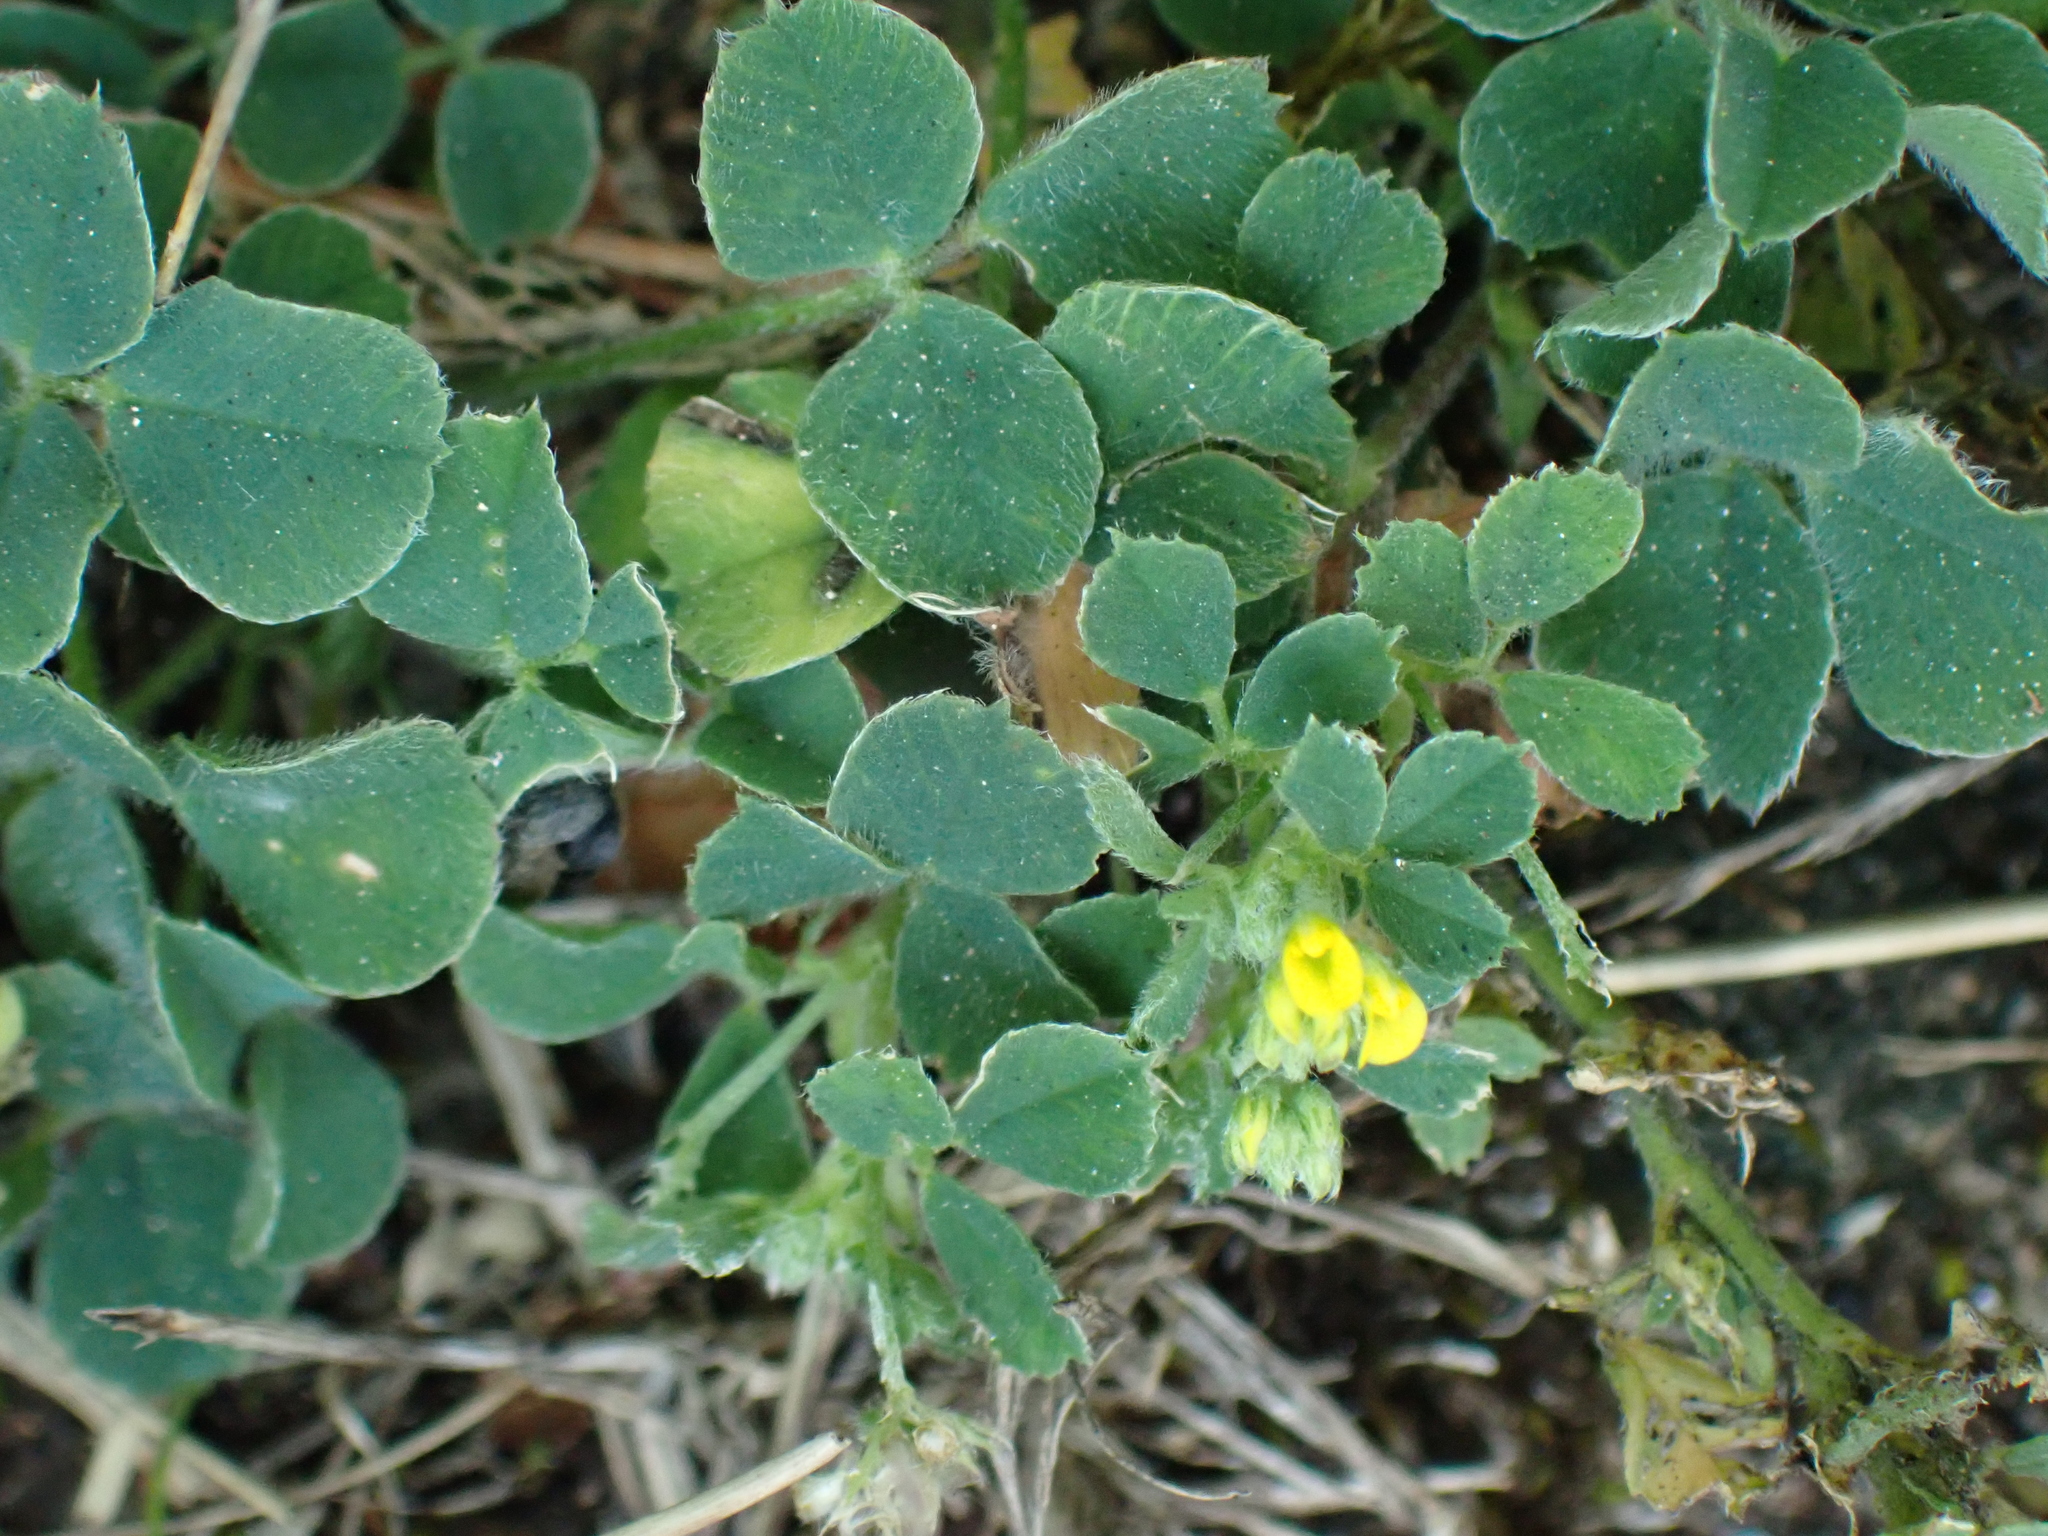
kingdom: Plantae
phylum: Tracheophyta
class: Magnoliopsida
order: Fabales
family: Fabaceae
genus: Medicago
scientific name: Medicago lupulina
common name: Black medick
